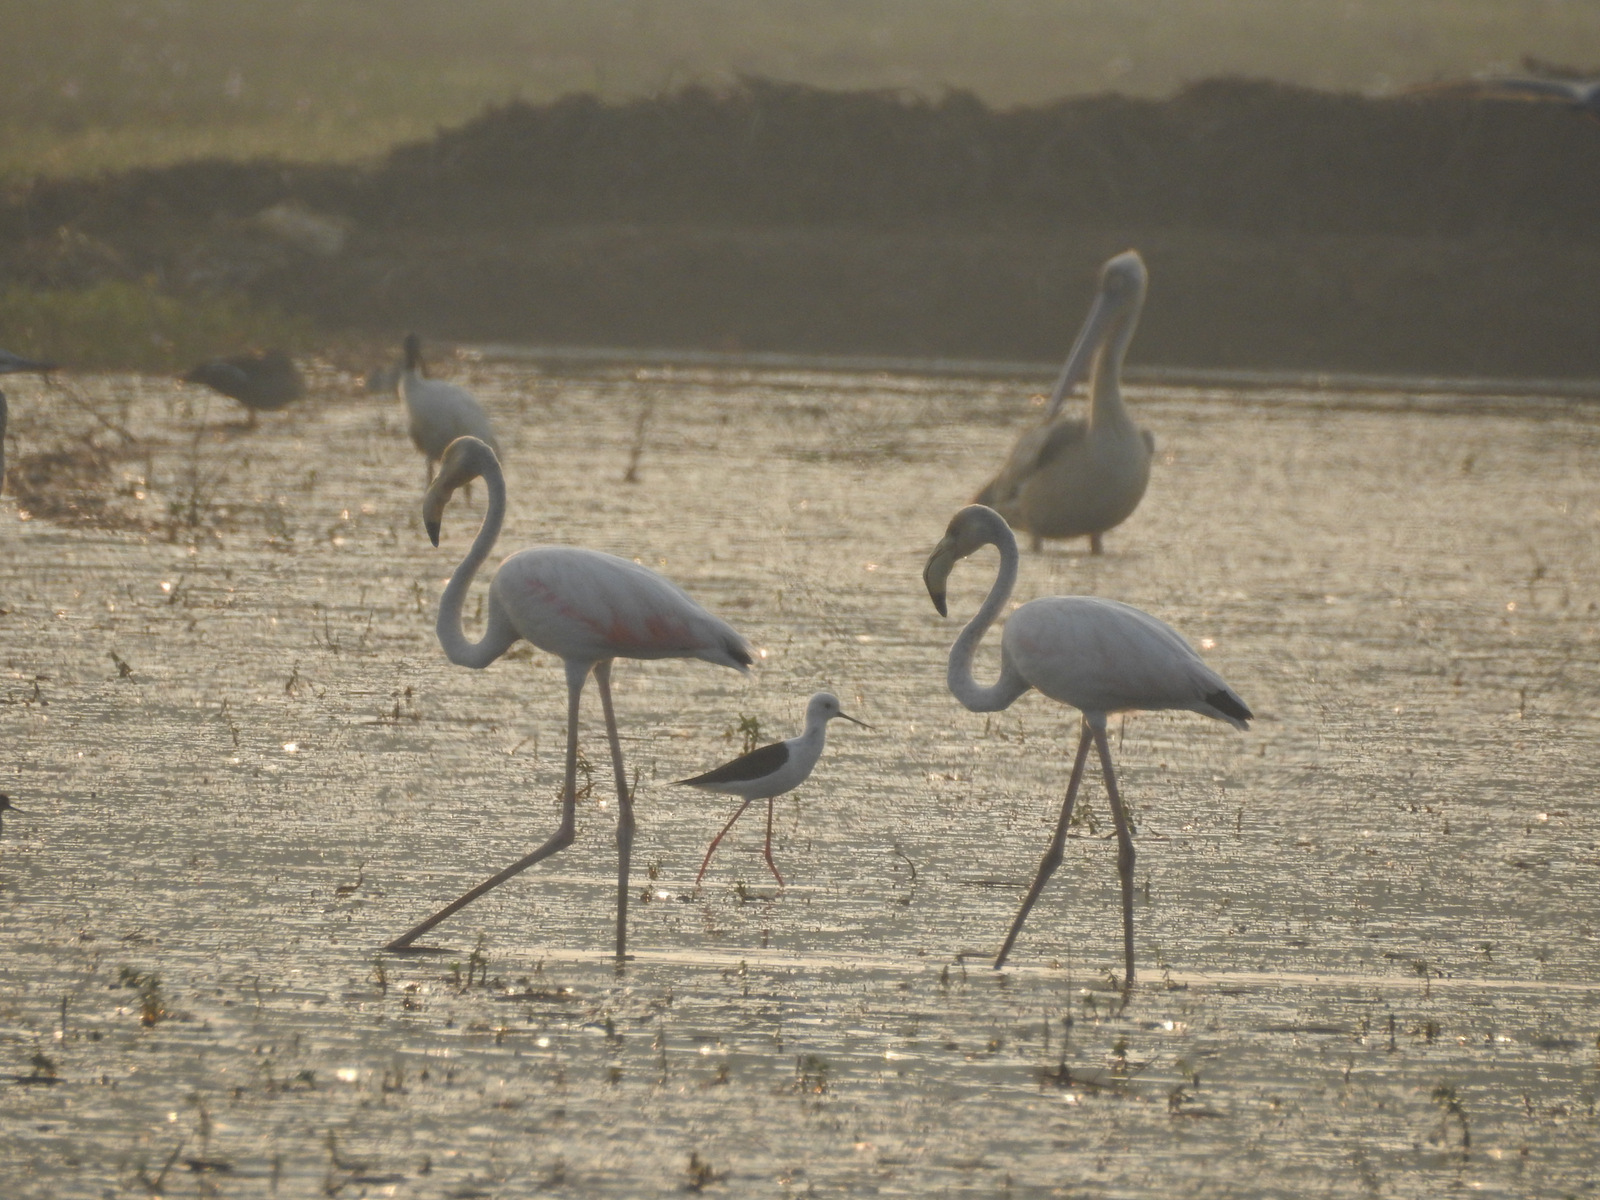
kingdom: Animalia
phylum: Chordata
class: Aves
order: Phoenicopteriformes
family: Phoenicopteridae
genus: Phoenicopterus
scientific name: Phoenicopterus roseus
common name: Greater flamingo
